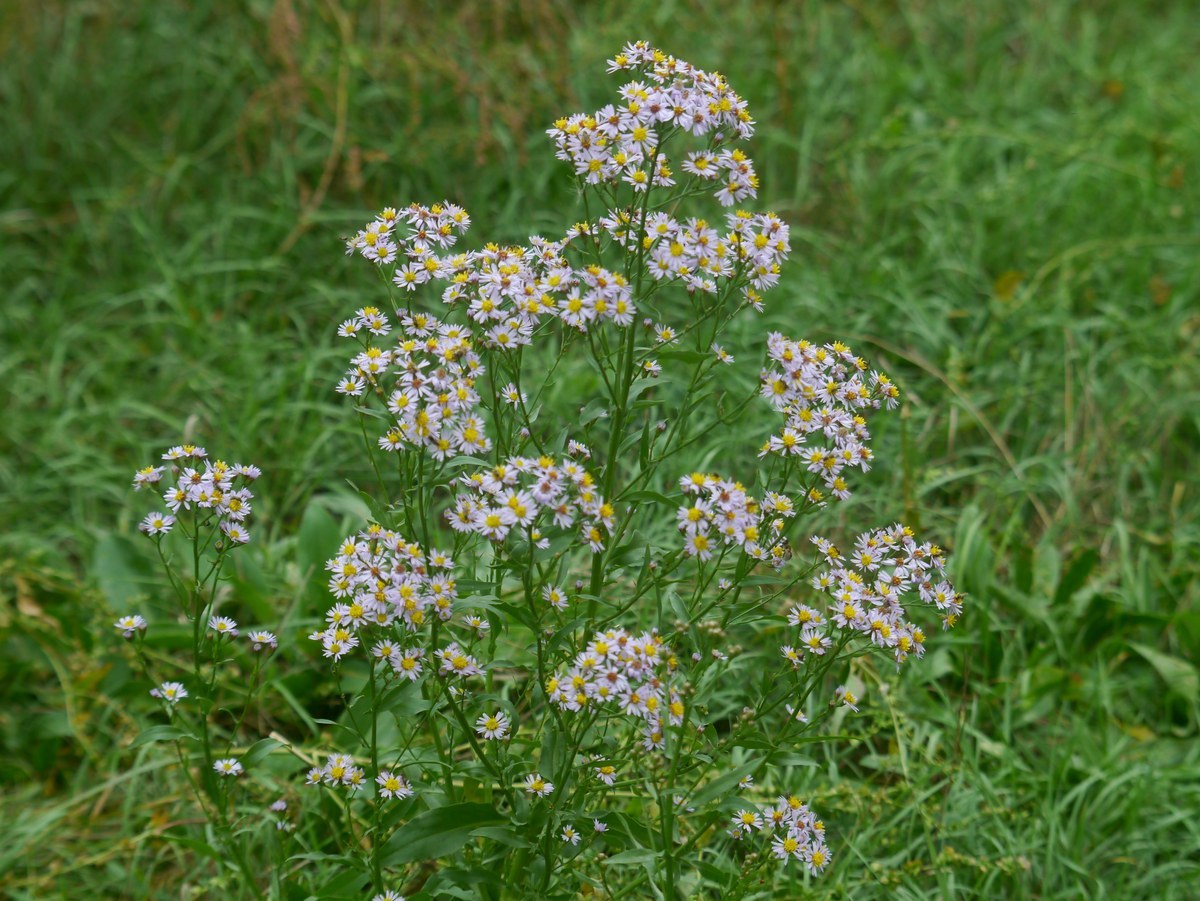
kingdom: Plantae
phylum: Tracheophyta
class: Magnoliopsida
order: Asterales
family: Asteraceae
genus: Tripolium
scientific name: Tripolium pannonicum
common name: Sea aster
